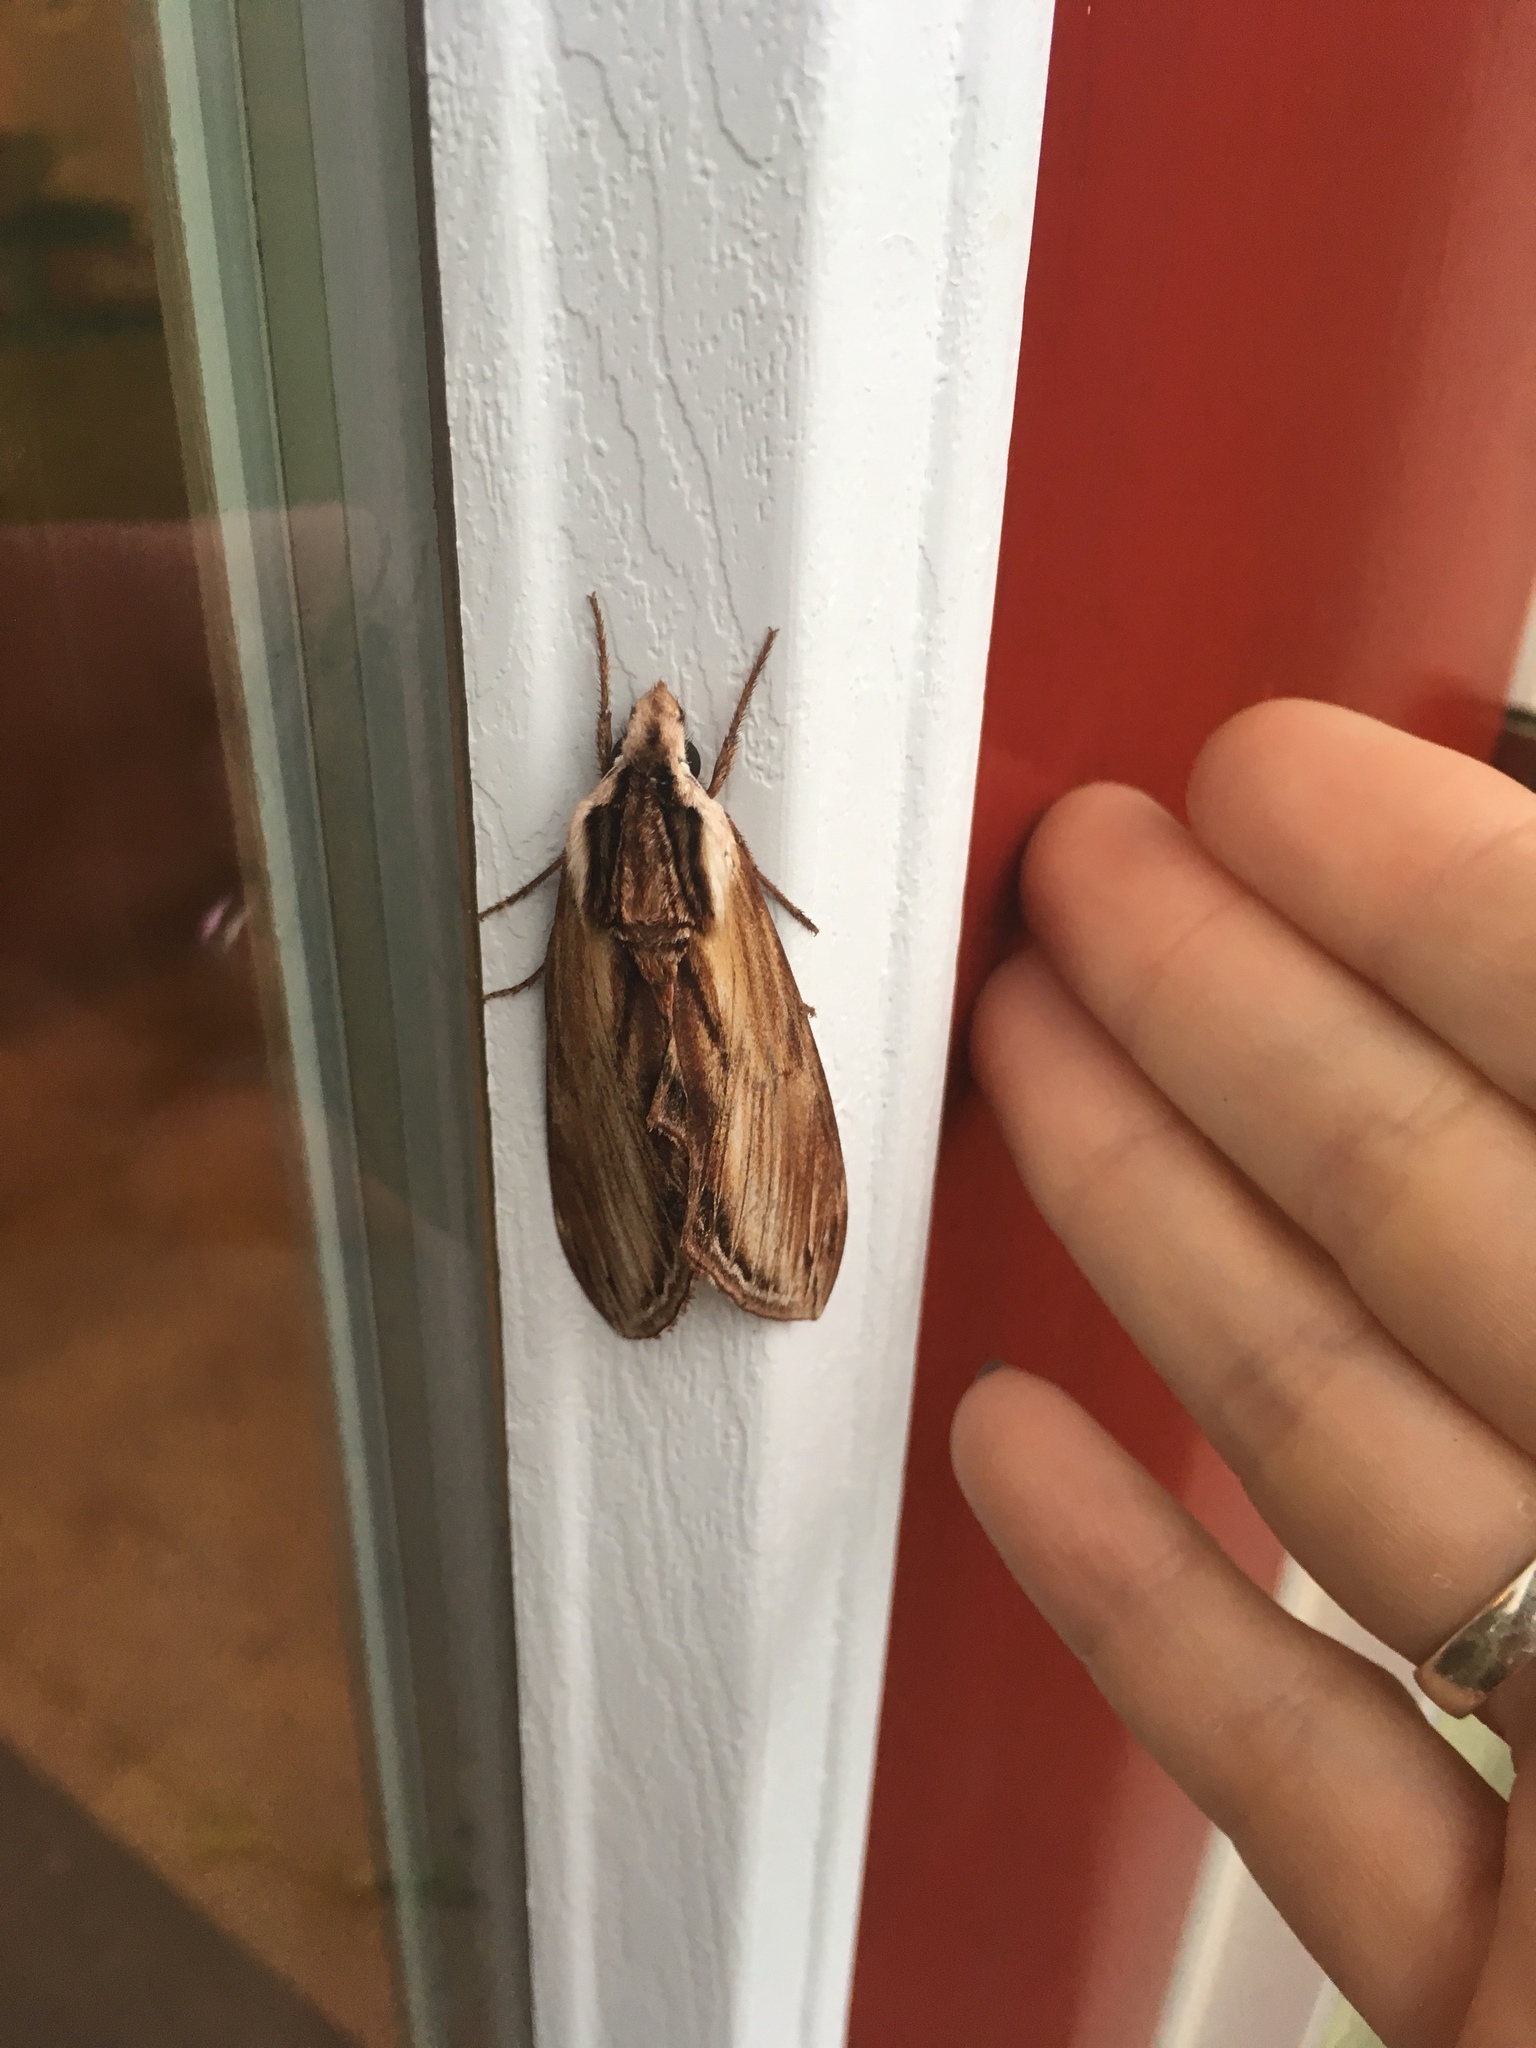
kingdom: Animalia
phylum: Arthropoda
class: Insecta
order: Lepidoptera
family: Sphingidae
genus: Sphinx
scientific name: Sphinx kalmiae
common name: Laurel sphinx
